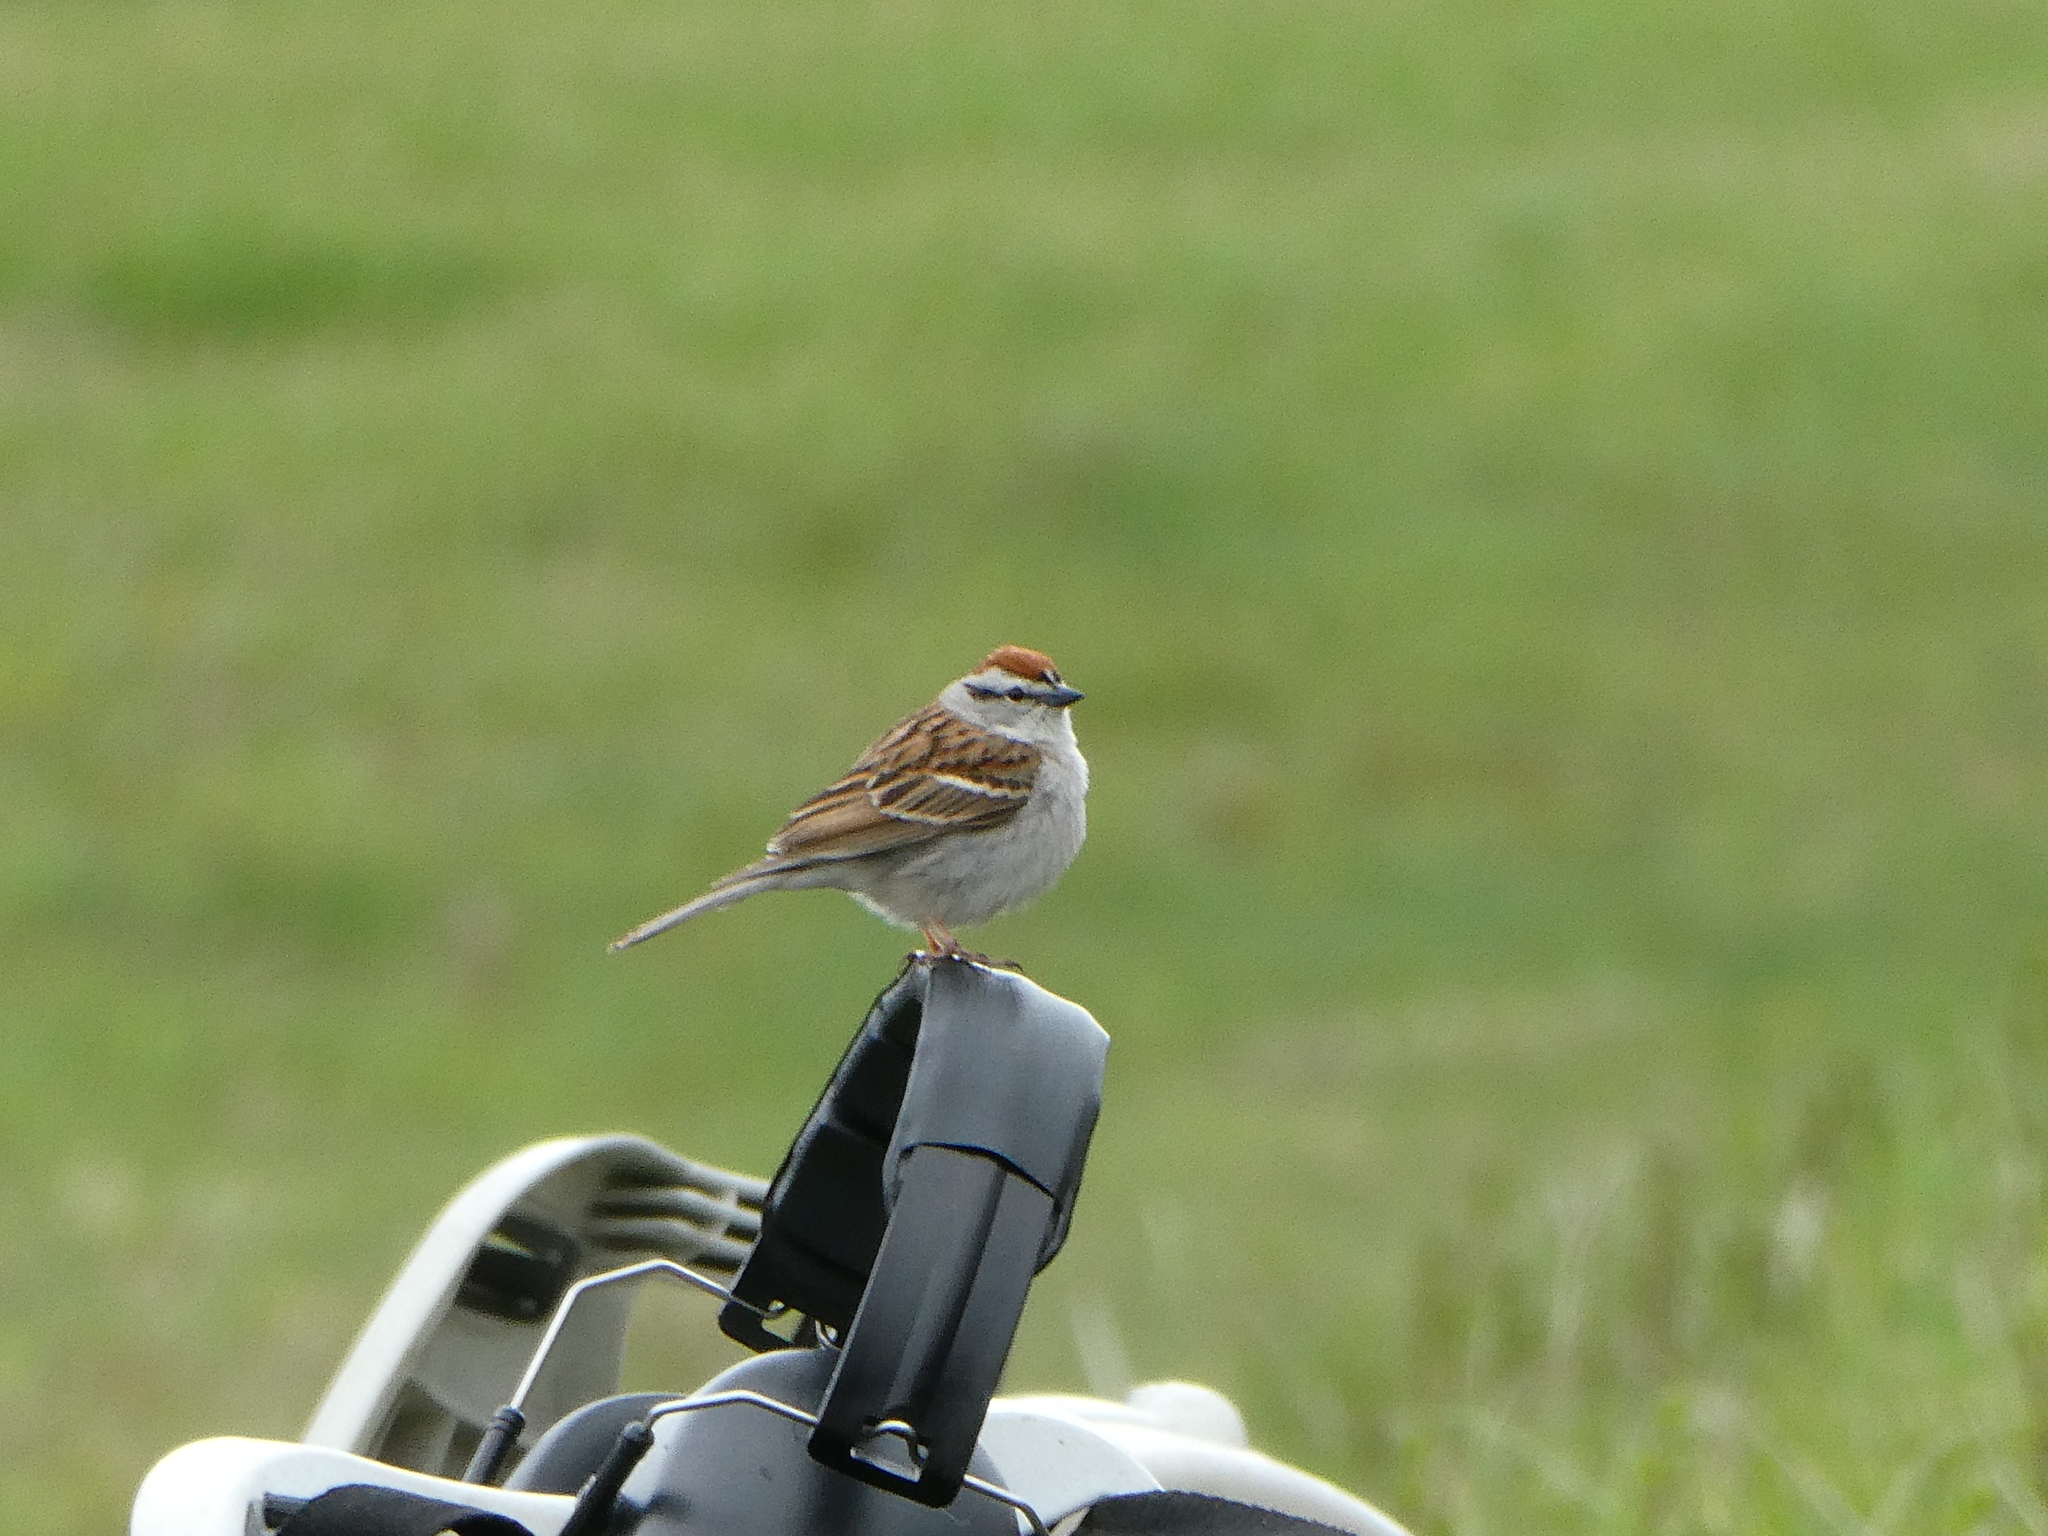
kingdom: Animalia
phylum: Chordata
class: Aves
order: Passeriformes
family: Passerellidae
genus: Spizella
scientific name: Spizella passerina
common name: Chipping sparrow
